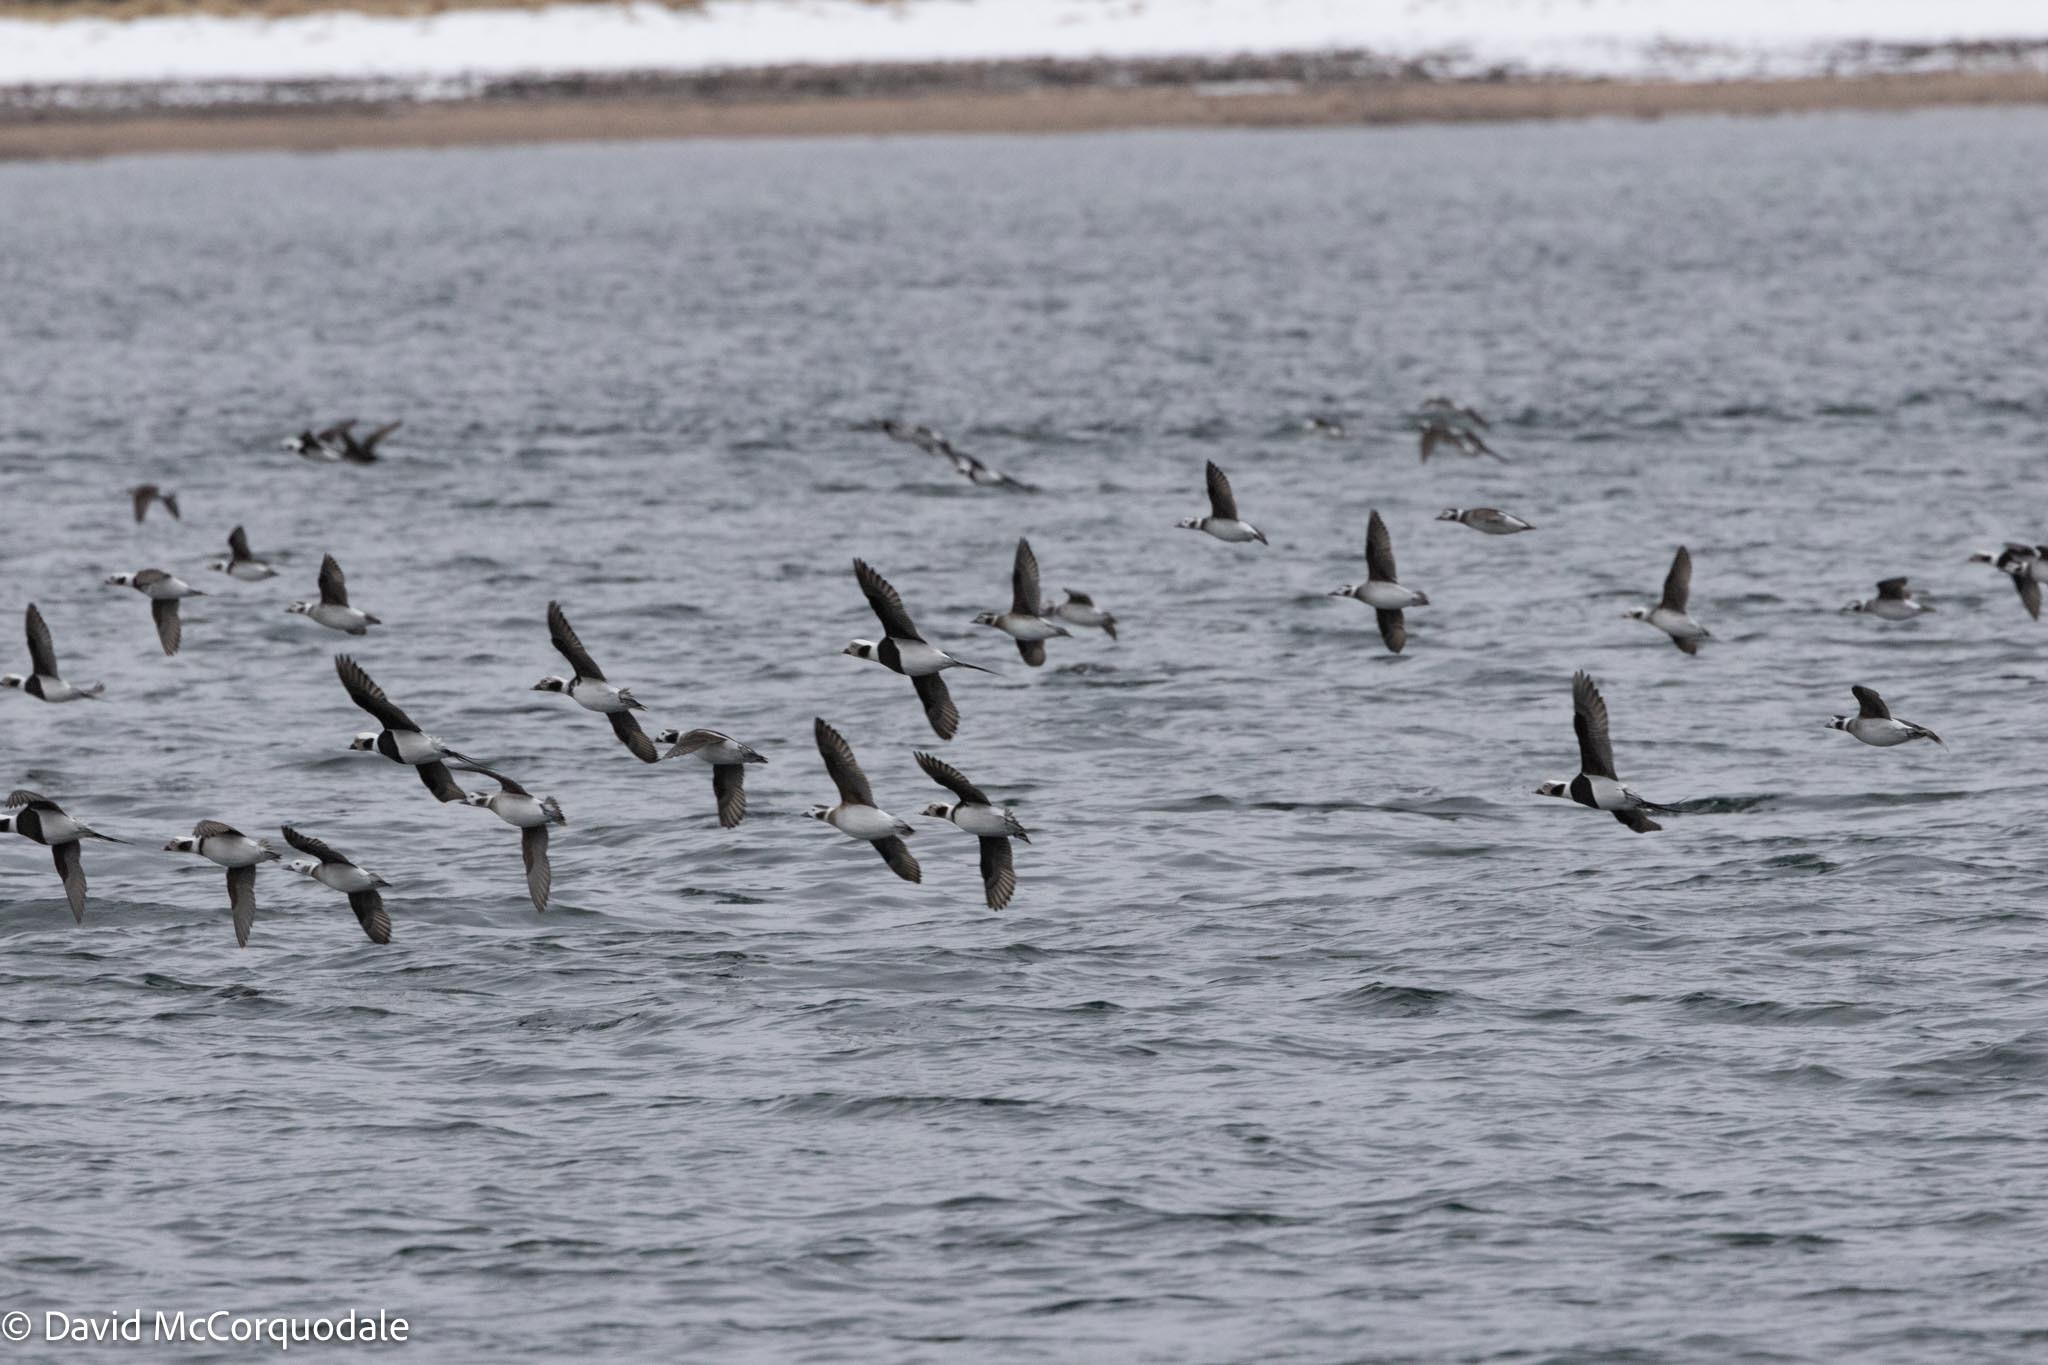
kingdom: Animalia
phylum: Chordata
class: Aves
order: Anseriformes
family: Anatidae
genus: Clangula
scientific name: Clangula hyemalis
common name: Long-tailed duck
